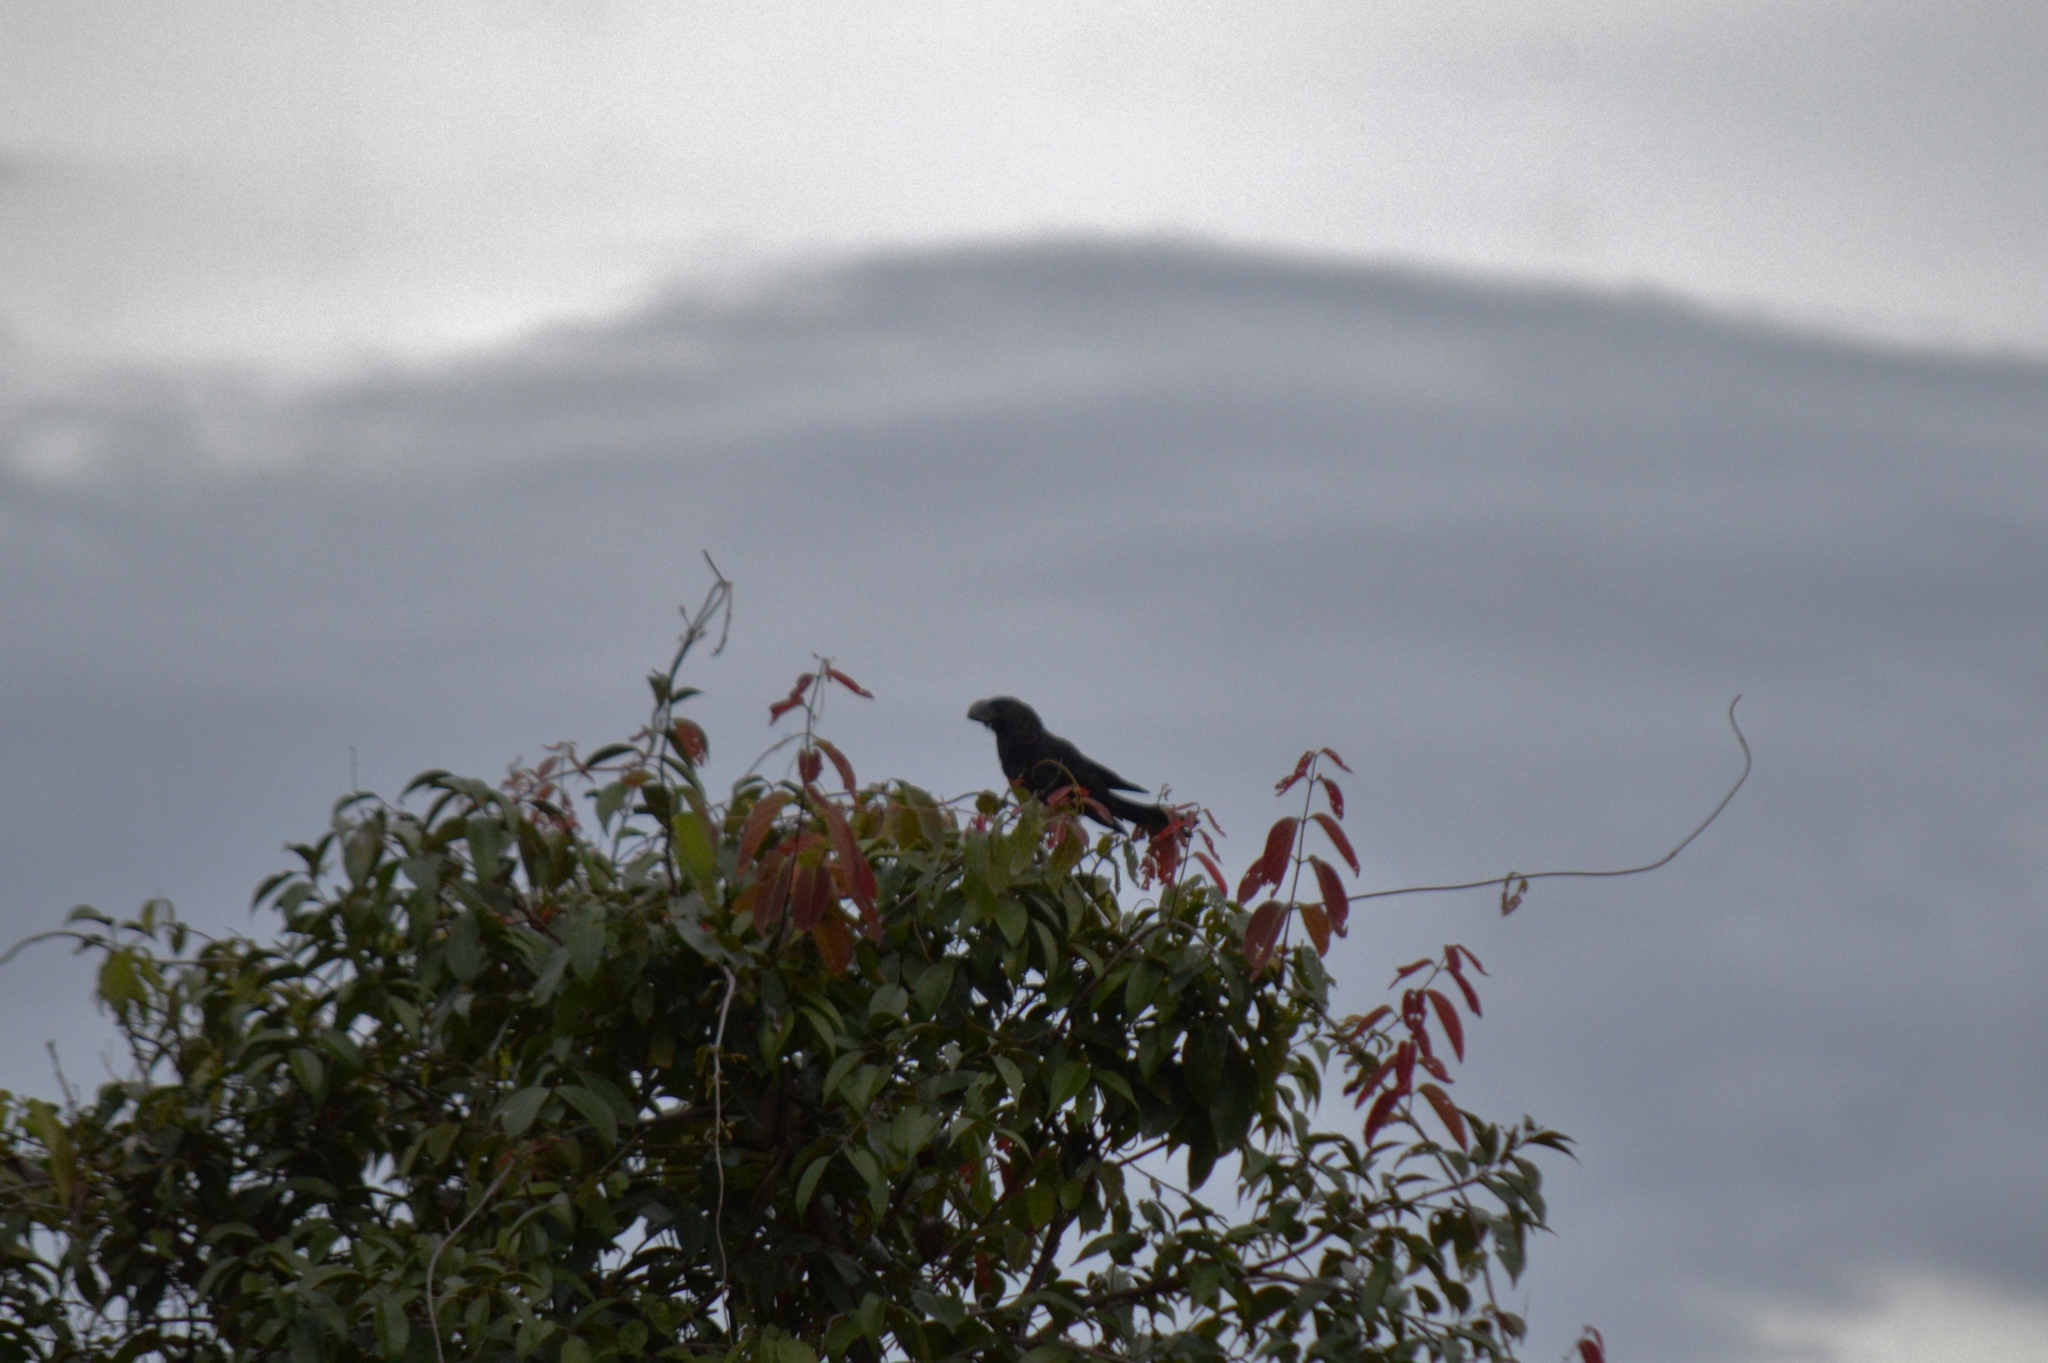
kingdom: Animalia
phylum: Chordata
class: Aves
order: Cuculiformes
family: Cuculidae
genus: Crotophaga
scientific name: Crotophaga ani
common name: Smooth-billed ani
